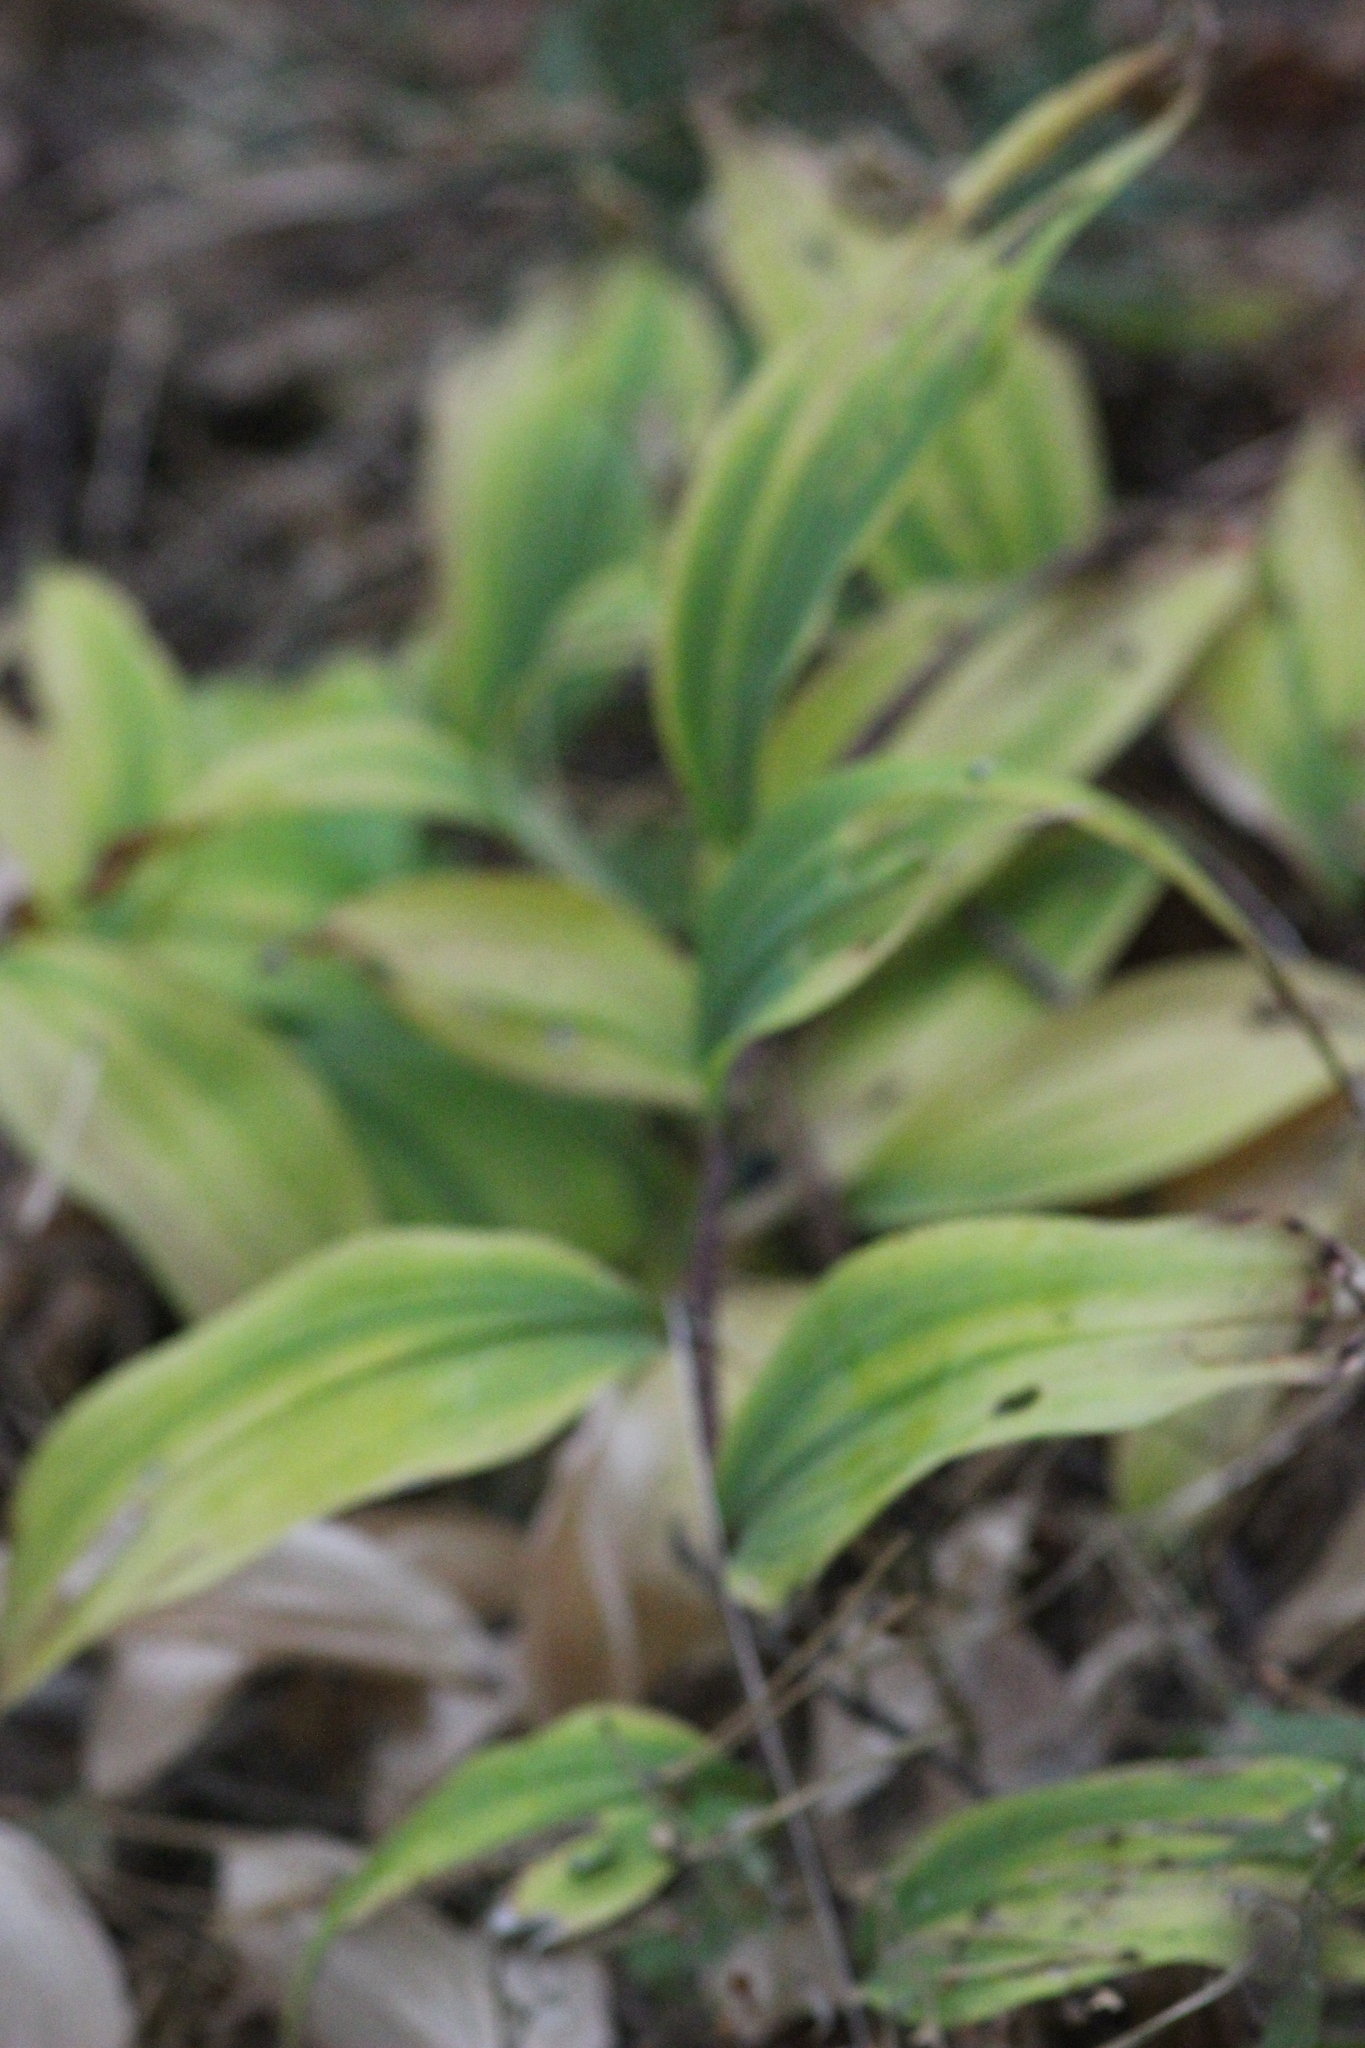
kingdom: Plantae
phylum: Tracheophyta
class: Liliopsida
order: Asparagales
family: Asparagaceae
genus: Polygonatum
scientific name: Polygonatum multiflorum
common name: Solomon's-seal
